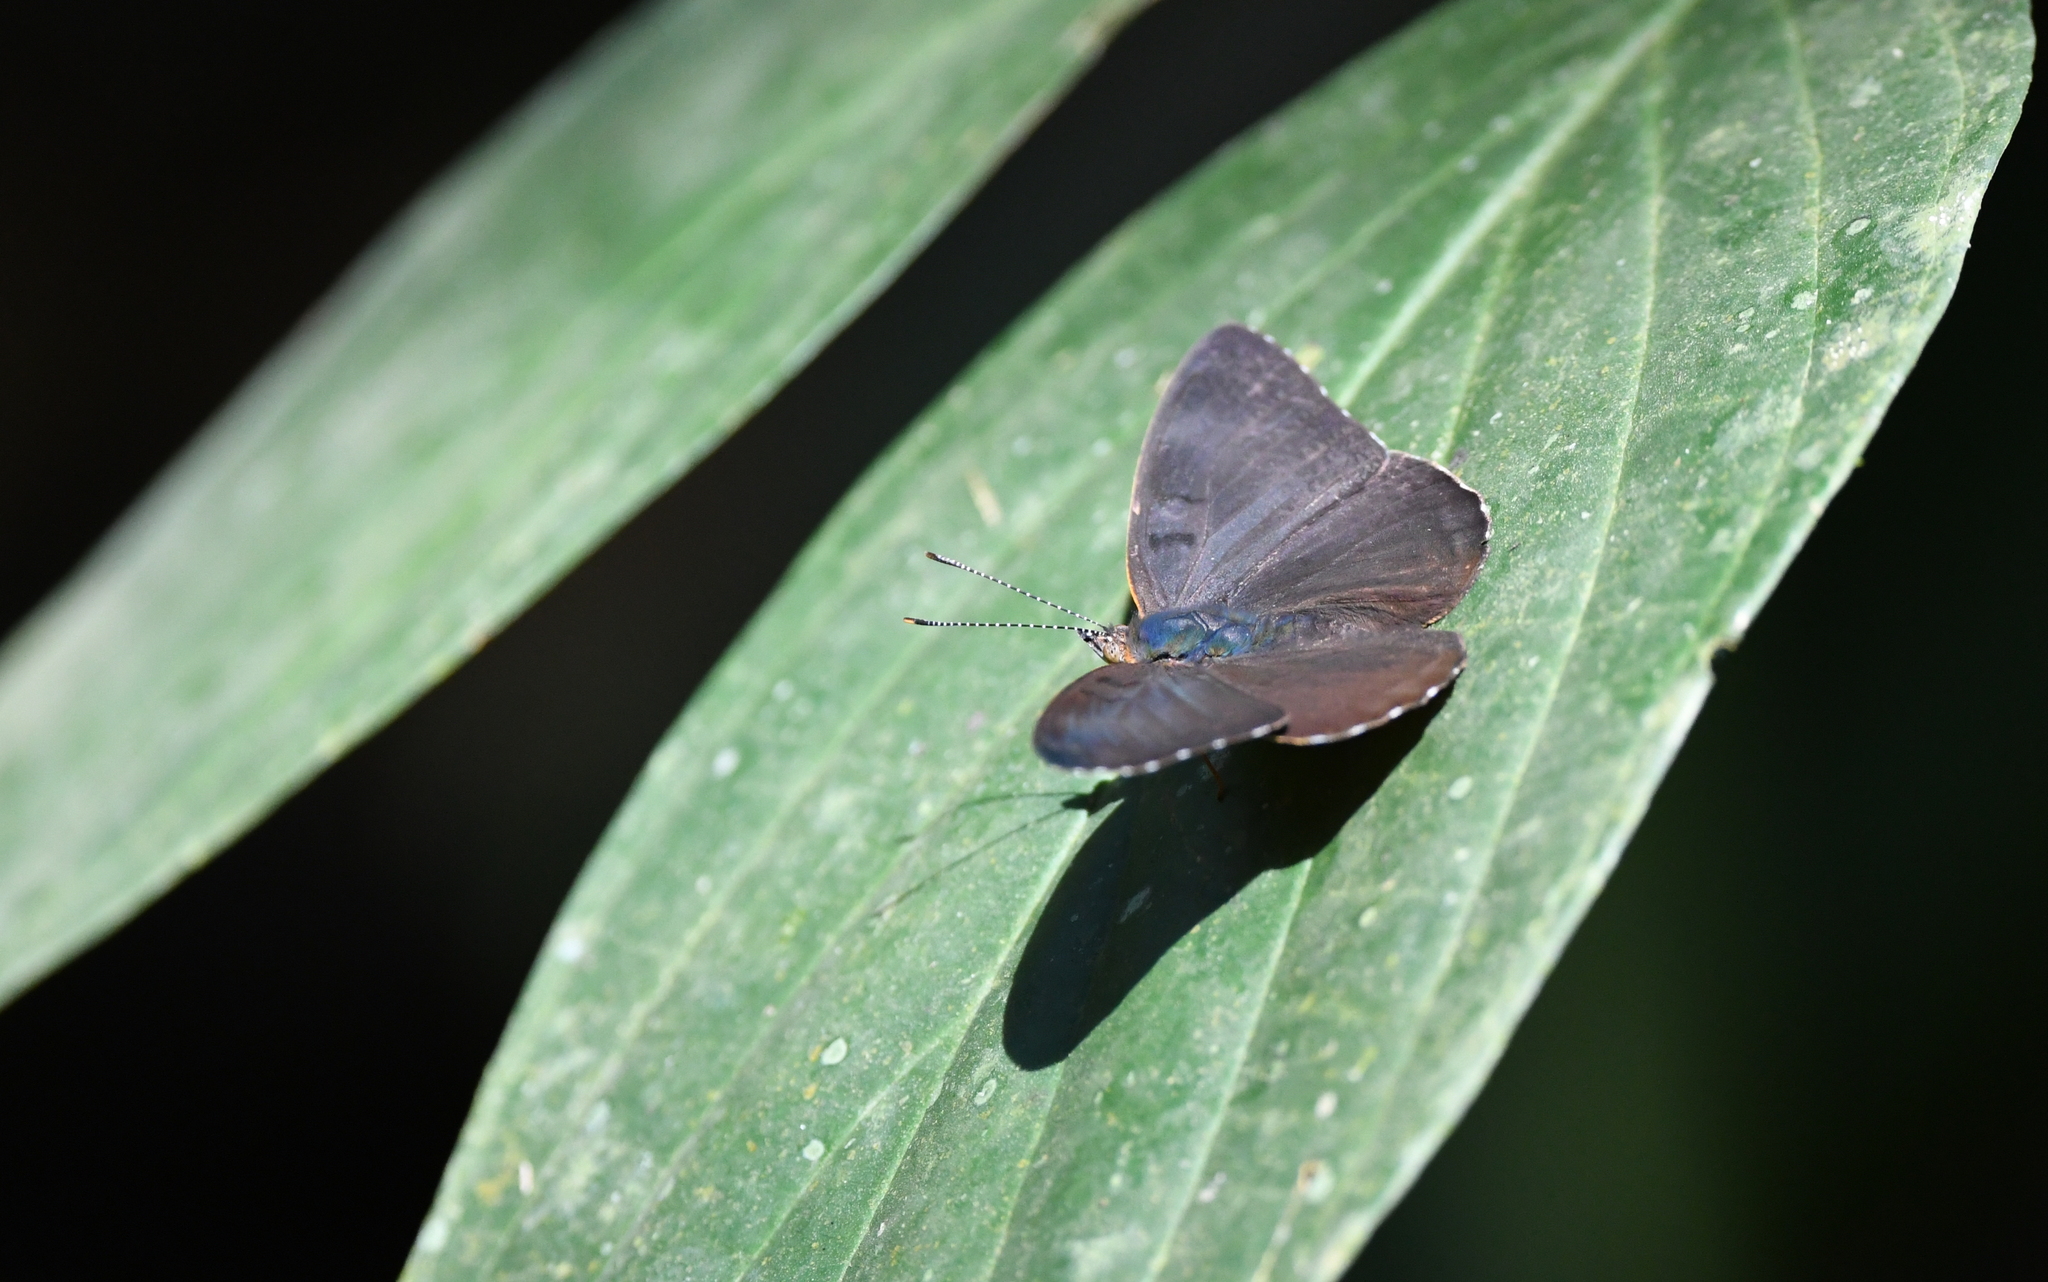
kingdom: Animalia
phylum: Arthropoda
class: Insecta
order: Lepidoptera
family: Nymphalidae
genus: Peria
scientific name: Peria lamis
